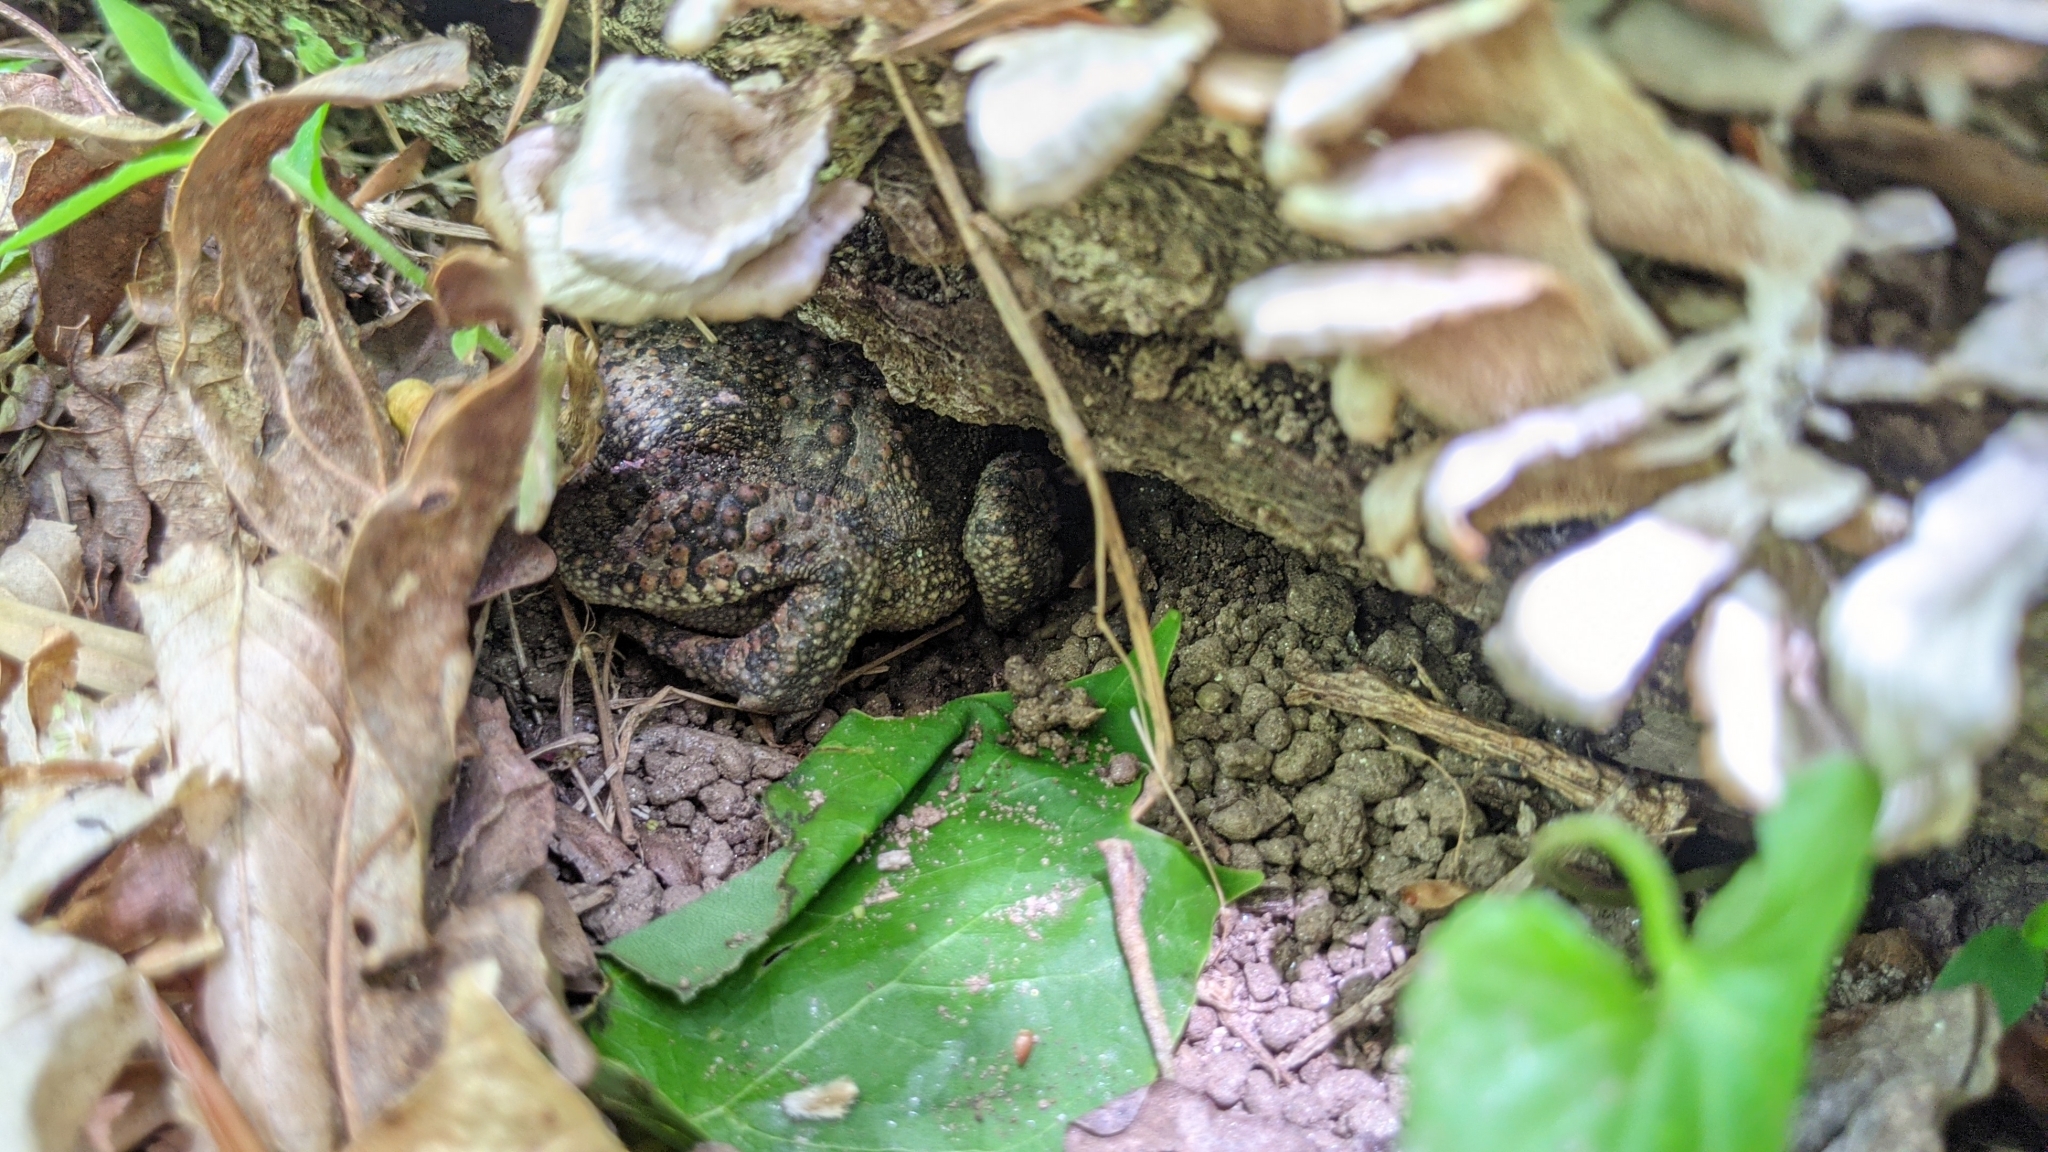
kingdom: Animalia
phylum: Chordata
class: Amphibia
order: Anura
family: Bufonidae
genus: Anaxyrus
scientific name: Anaxyrus americanus
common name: American toad
